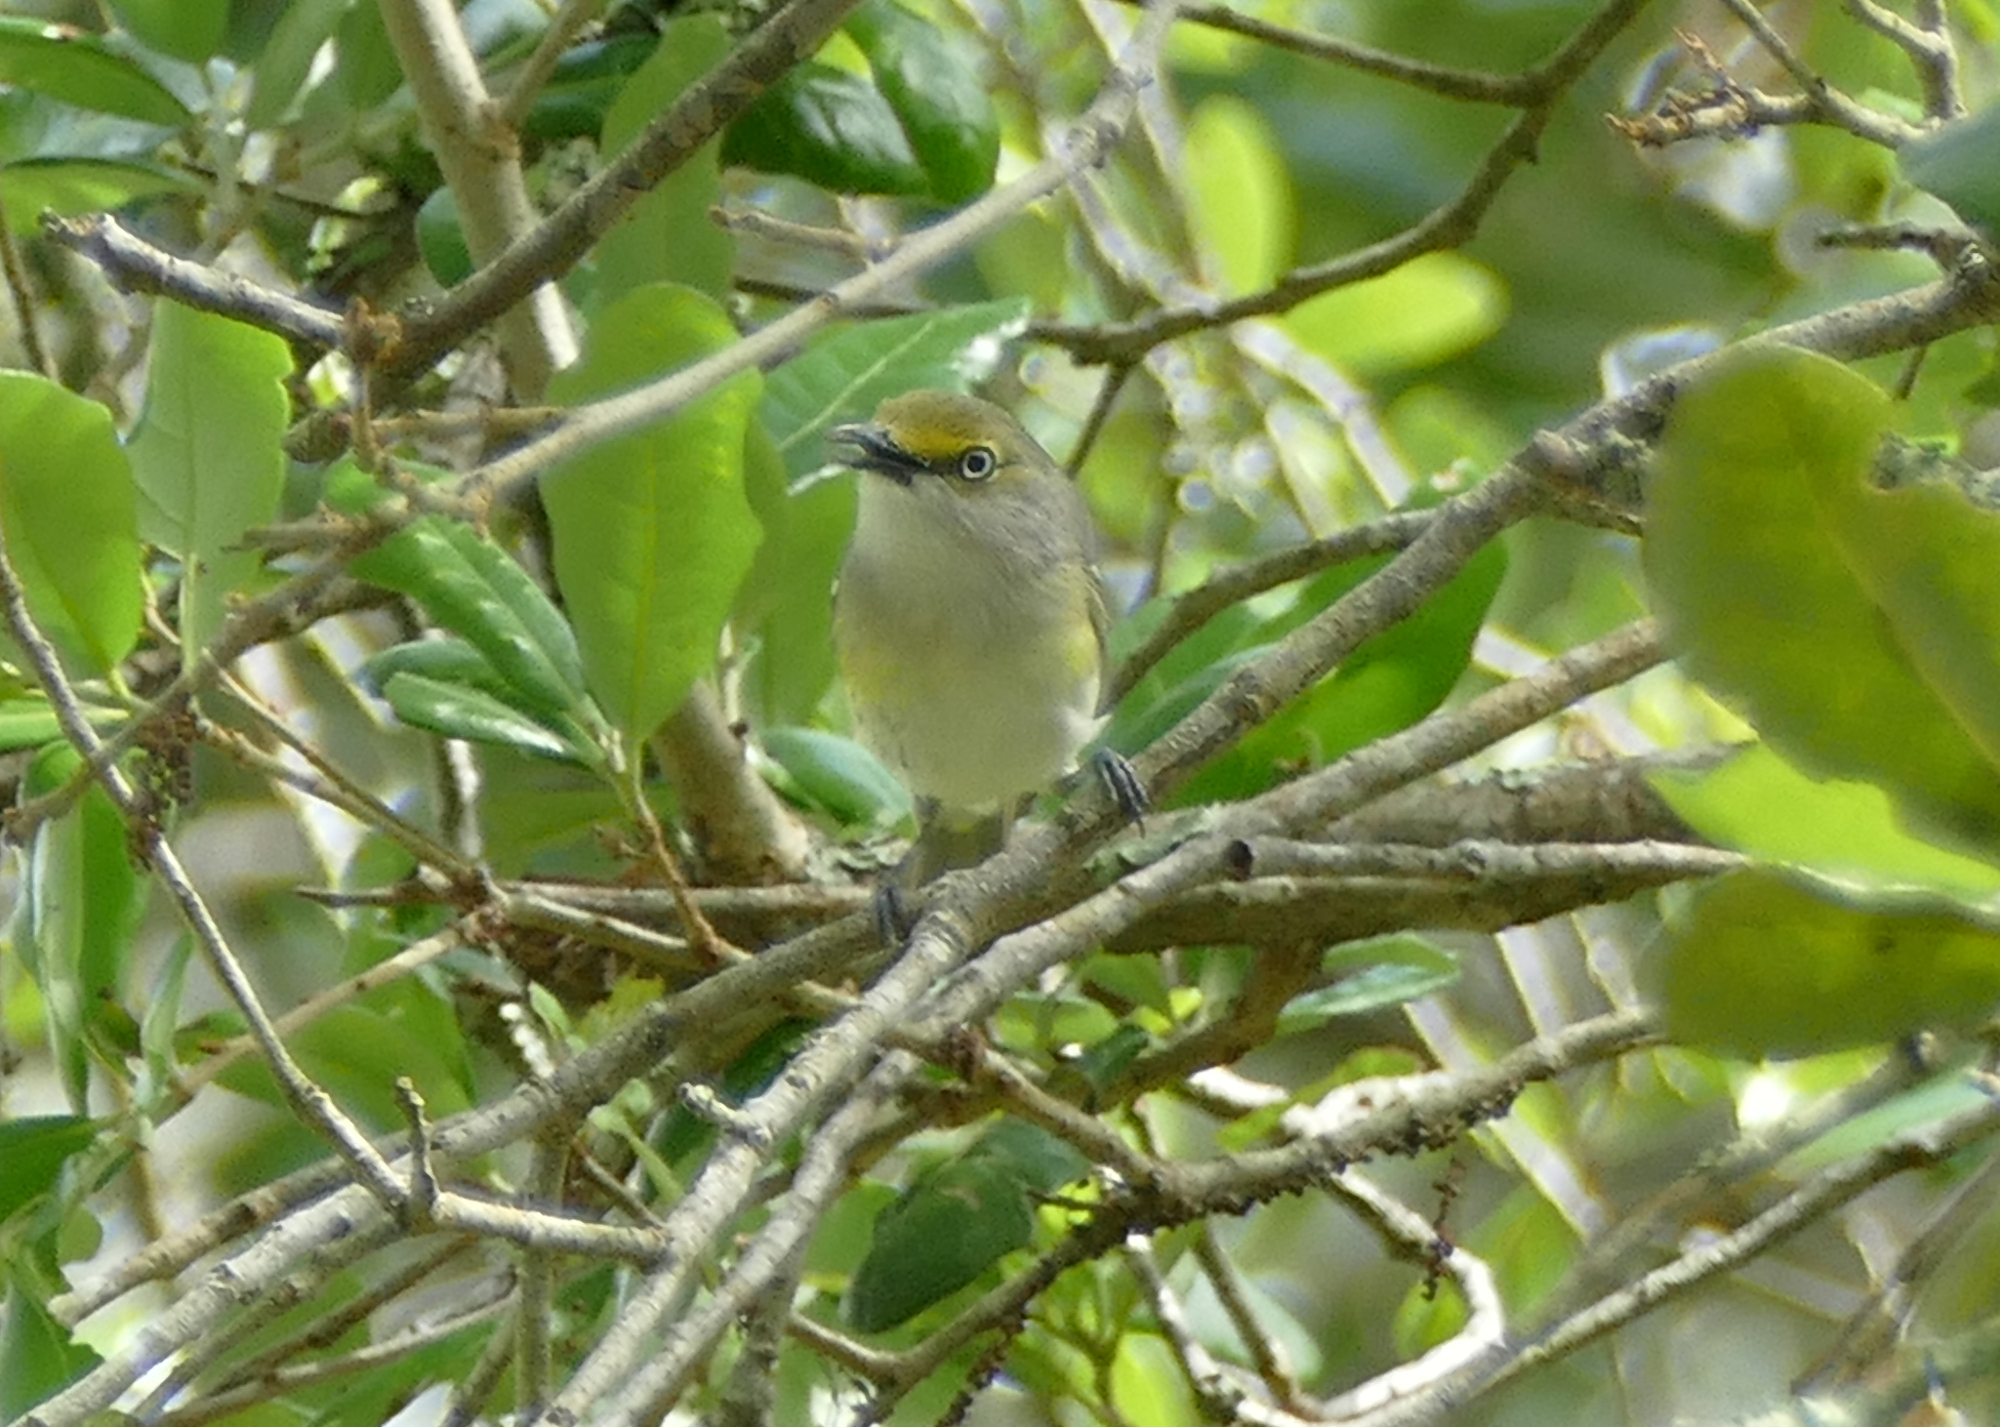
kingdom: Animalia
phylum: Chordata
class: Aves
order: Passeriformes
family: Vireonidae
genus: Vireo
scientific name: Vireo griseus
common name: White-eyed vireo
